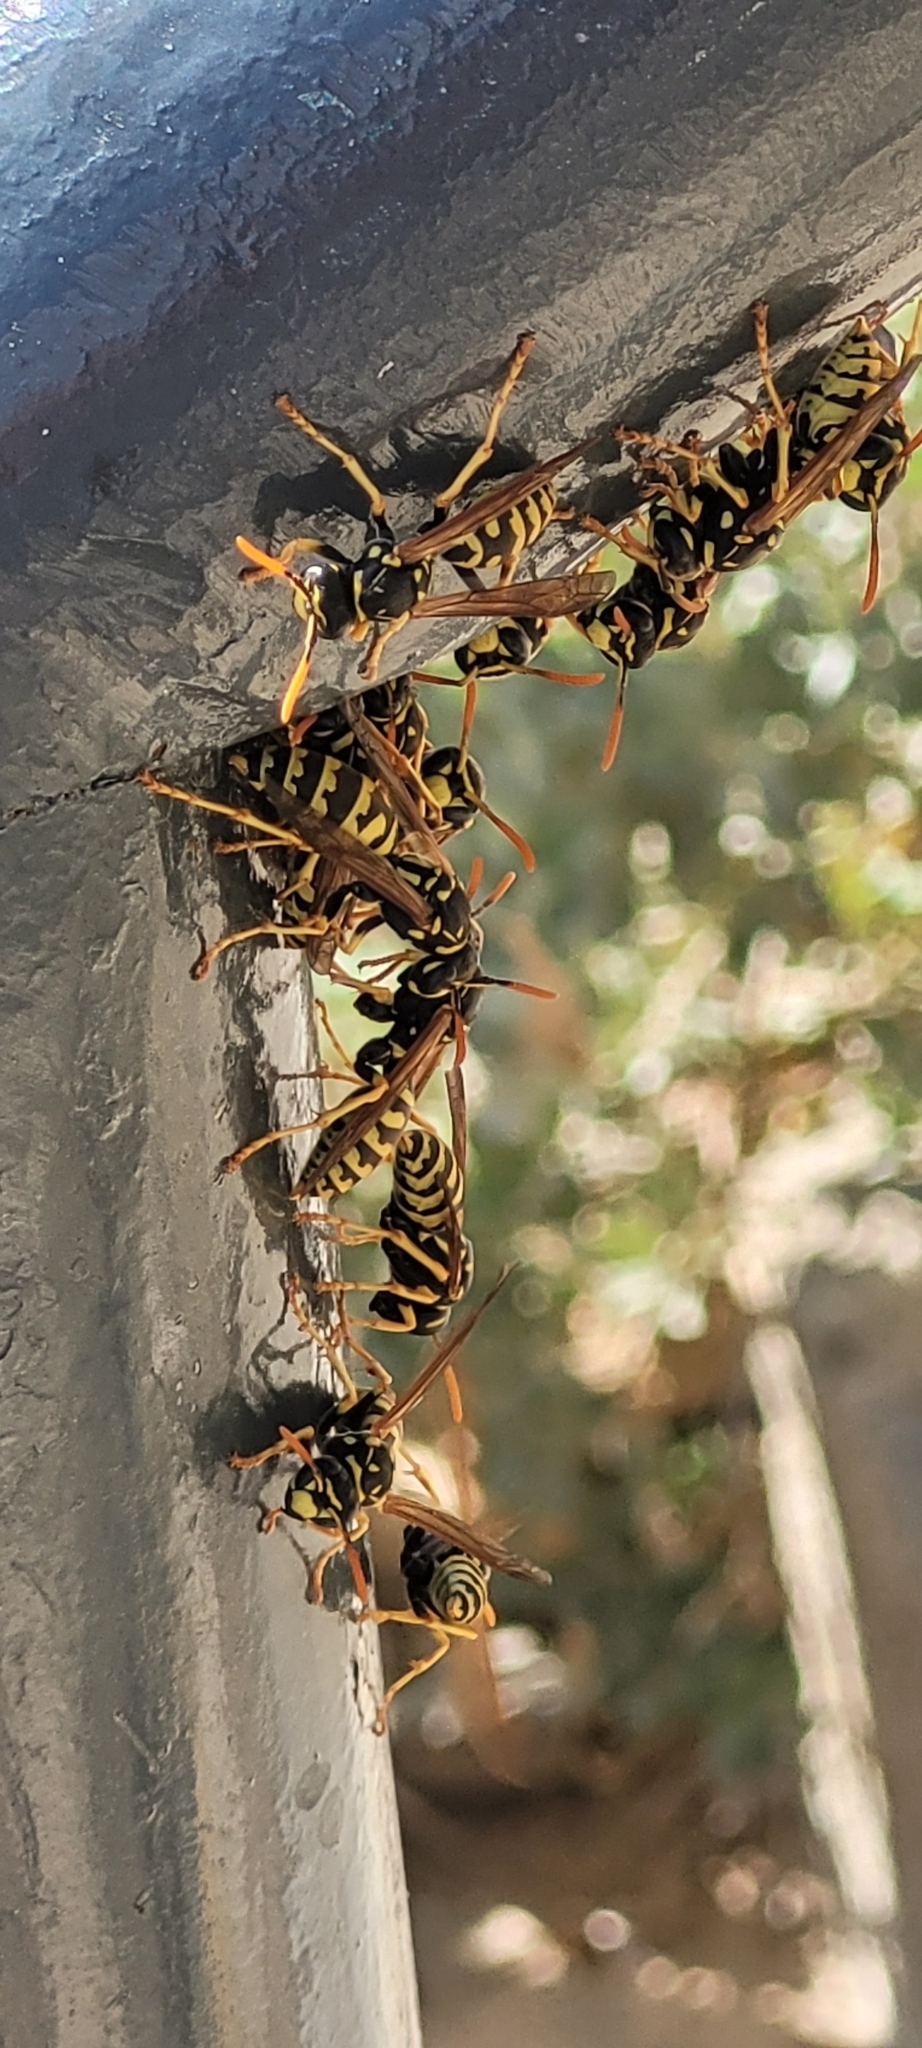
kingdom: Animalia
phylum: Arthropoda
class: Insecta
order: Hymenoptera
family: Eumenidae
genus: Polistes
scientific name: Polistes dominula
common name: Paper wasp
